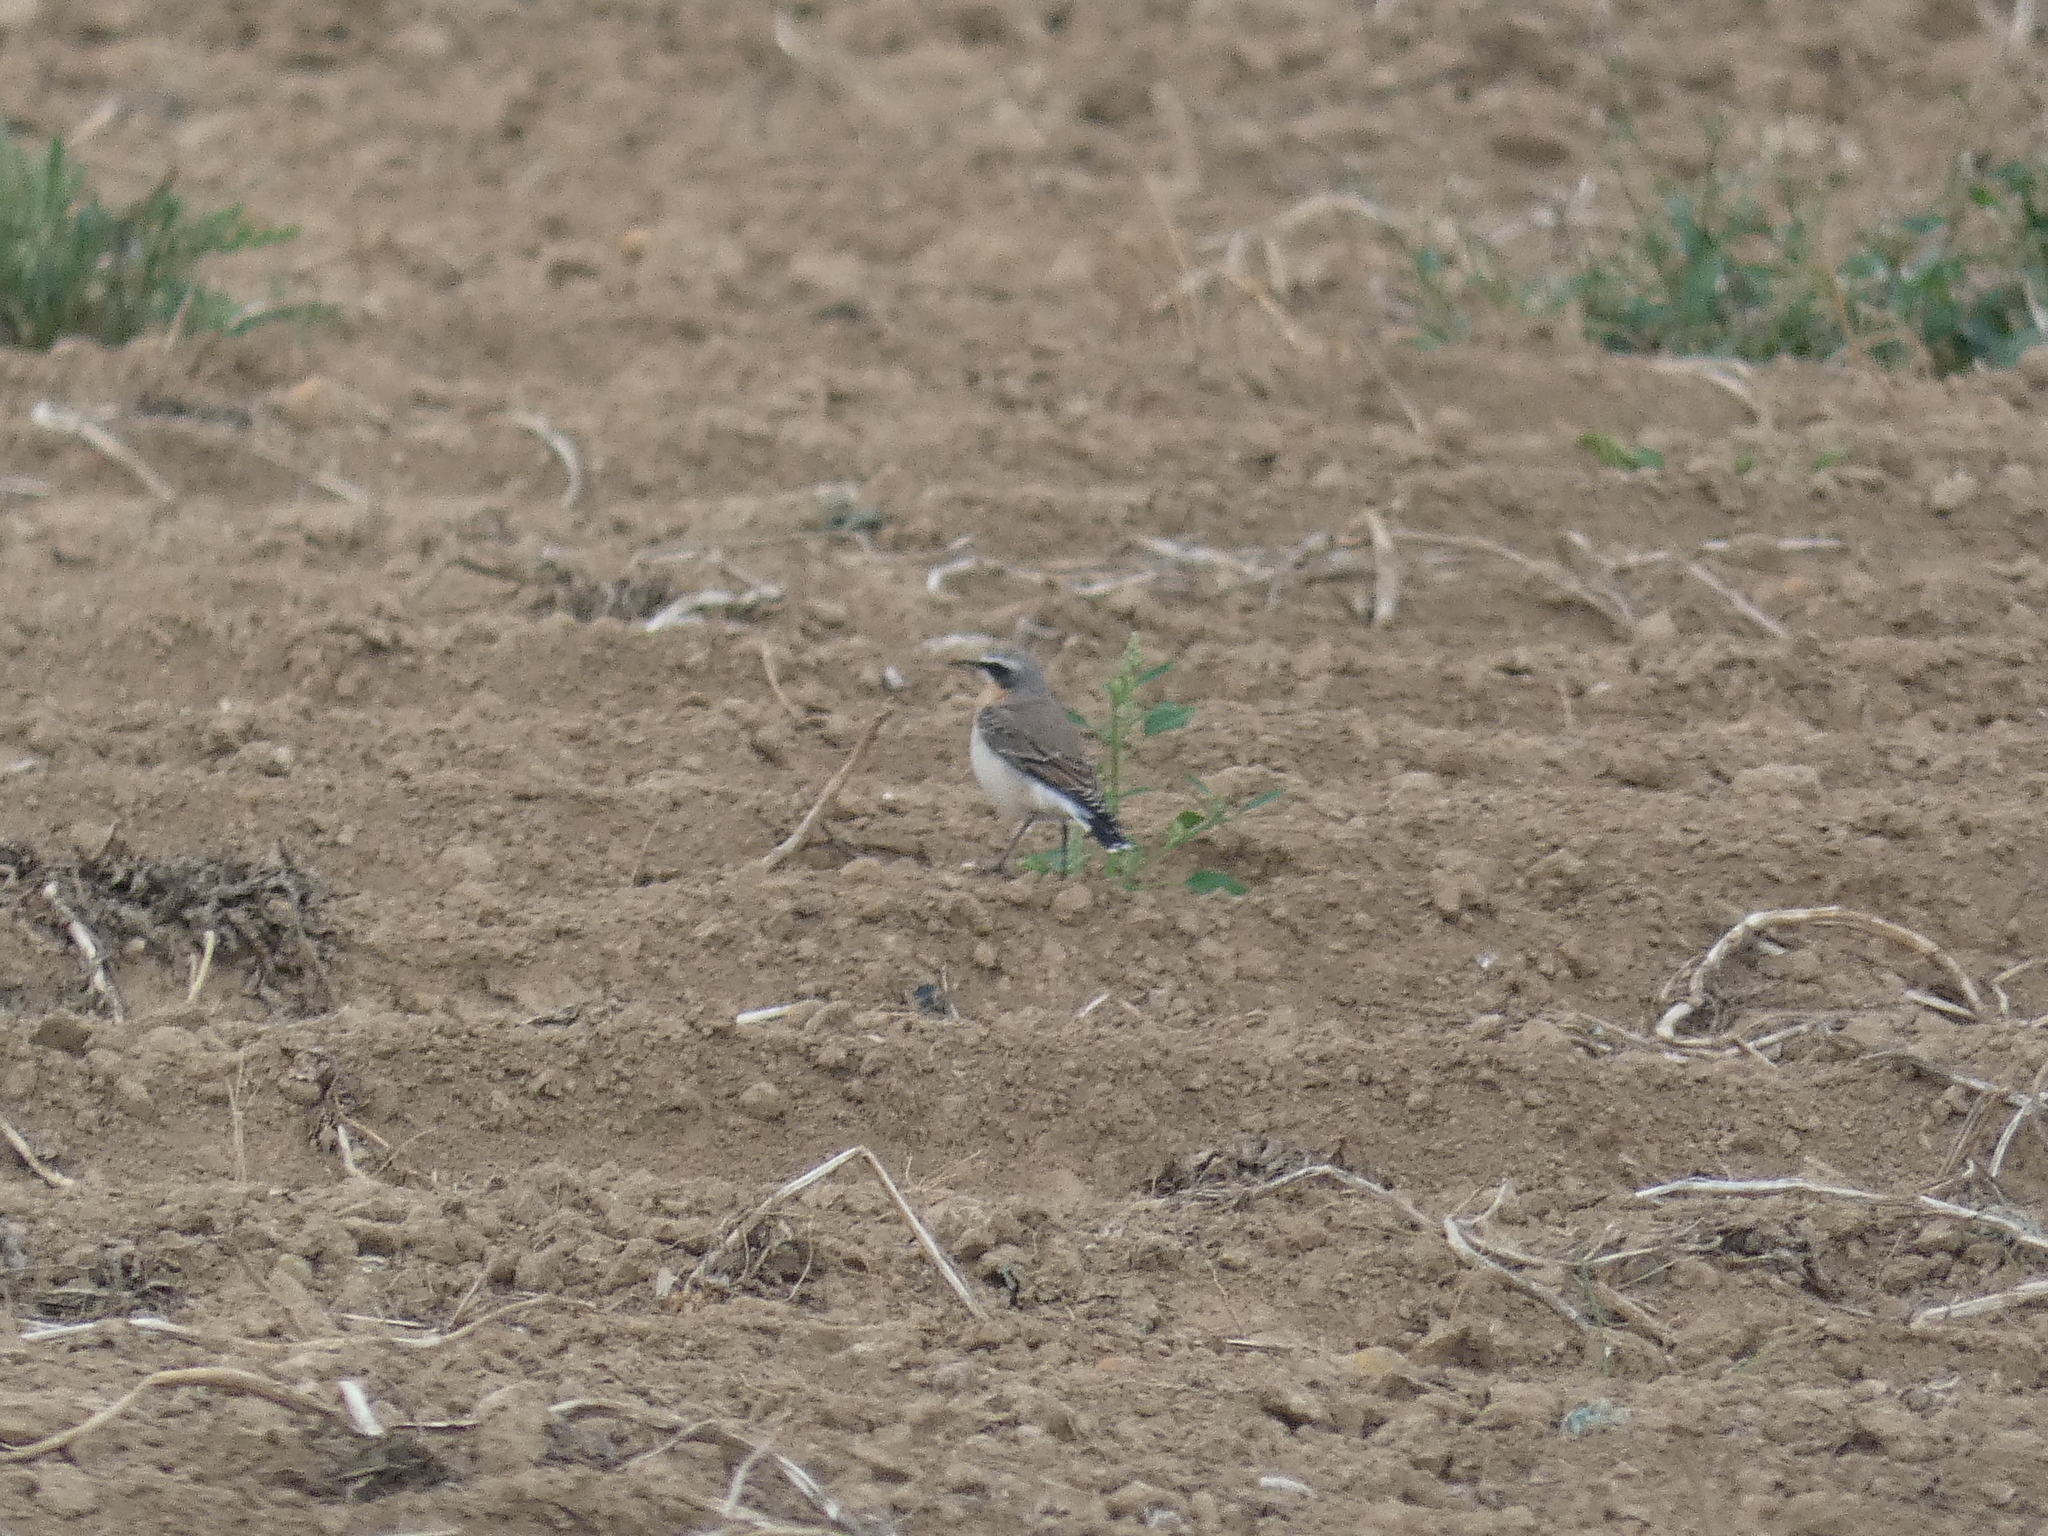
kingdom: Animalia
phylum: Chordata
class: Aves
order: Passeriformes
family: Muscicapidae
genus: Oenanthe
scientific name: Oenanthe oenanthe
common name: Northern wheatear
